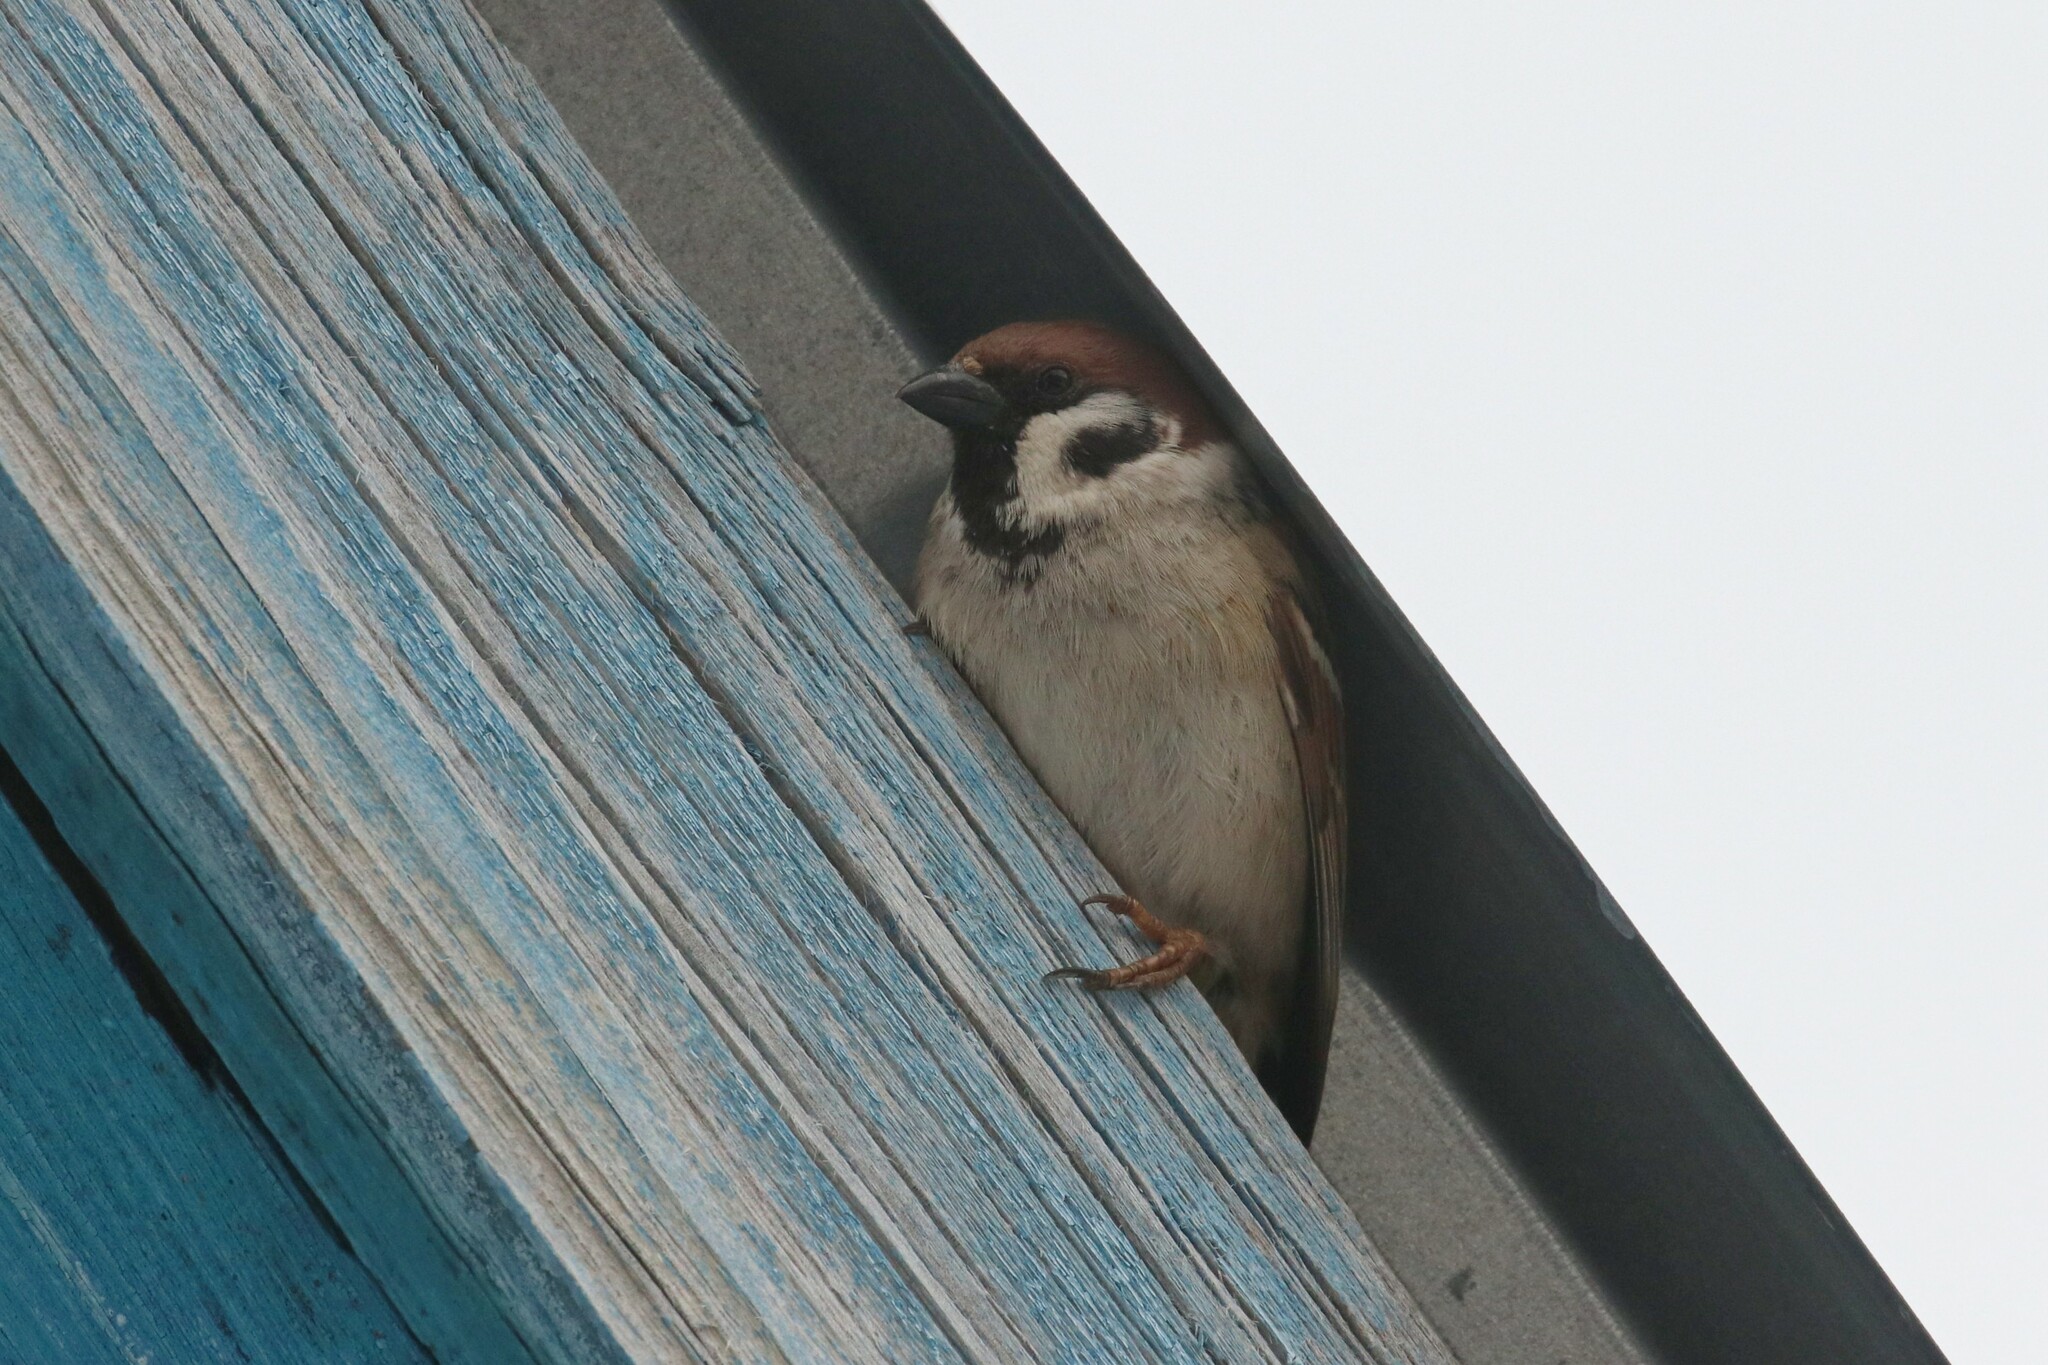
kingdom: Animalia
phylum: Chordata
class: Aves
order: Passeriformes
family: Passeridae
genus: Passer
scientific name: Passer montanus
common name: Eurasian tree sparrow
